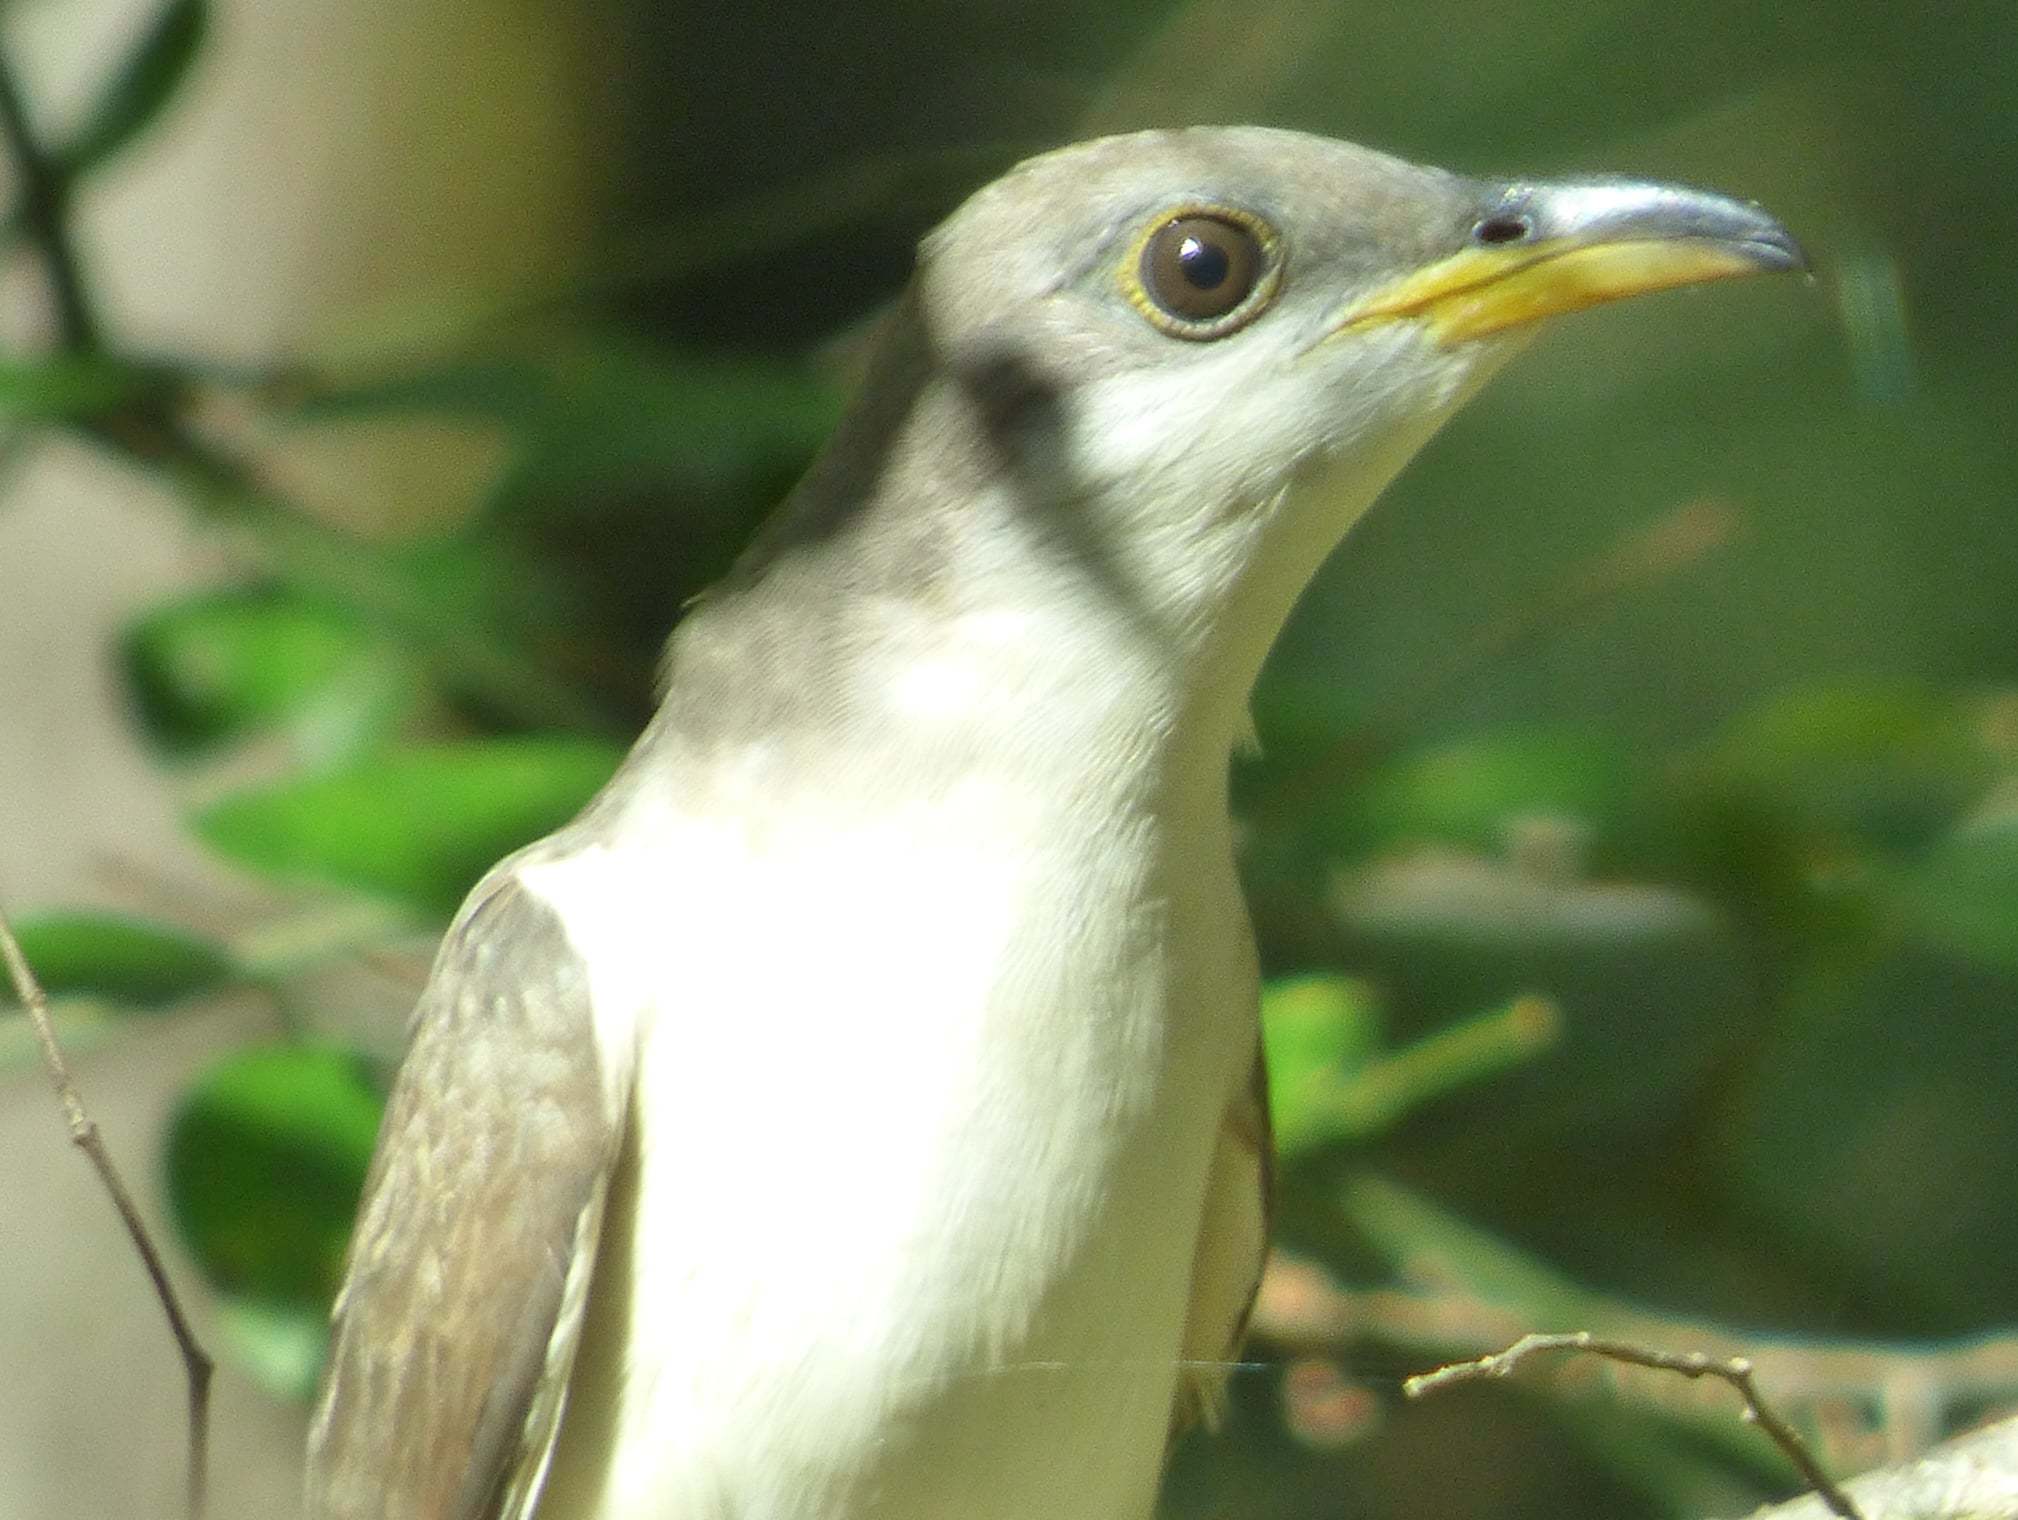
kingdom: Animalia
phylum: Chordata
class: Aves
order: Cuculiformes
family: Cuculidae
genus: Coccyzus
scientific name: Coccyzus americanus
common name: Yellow-billed cuckoo
